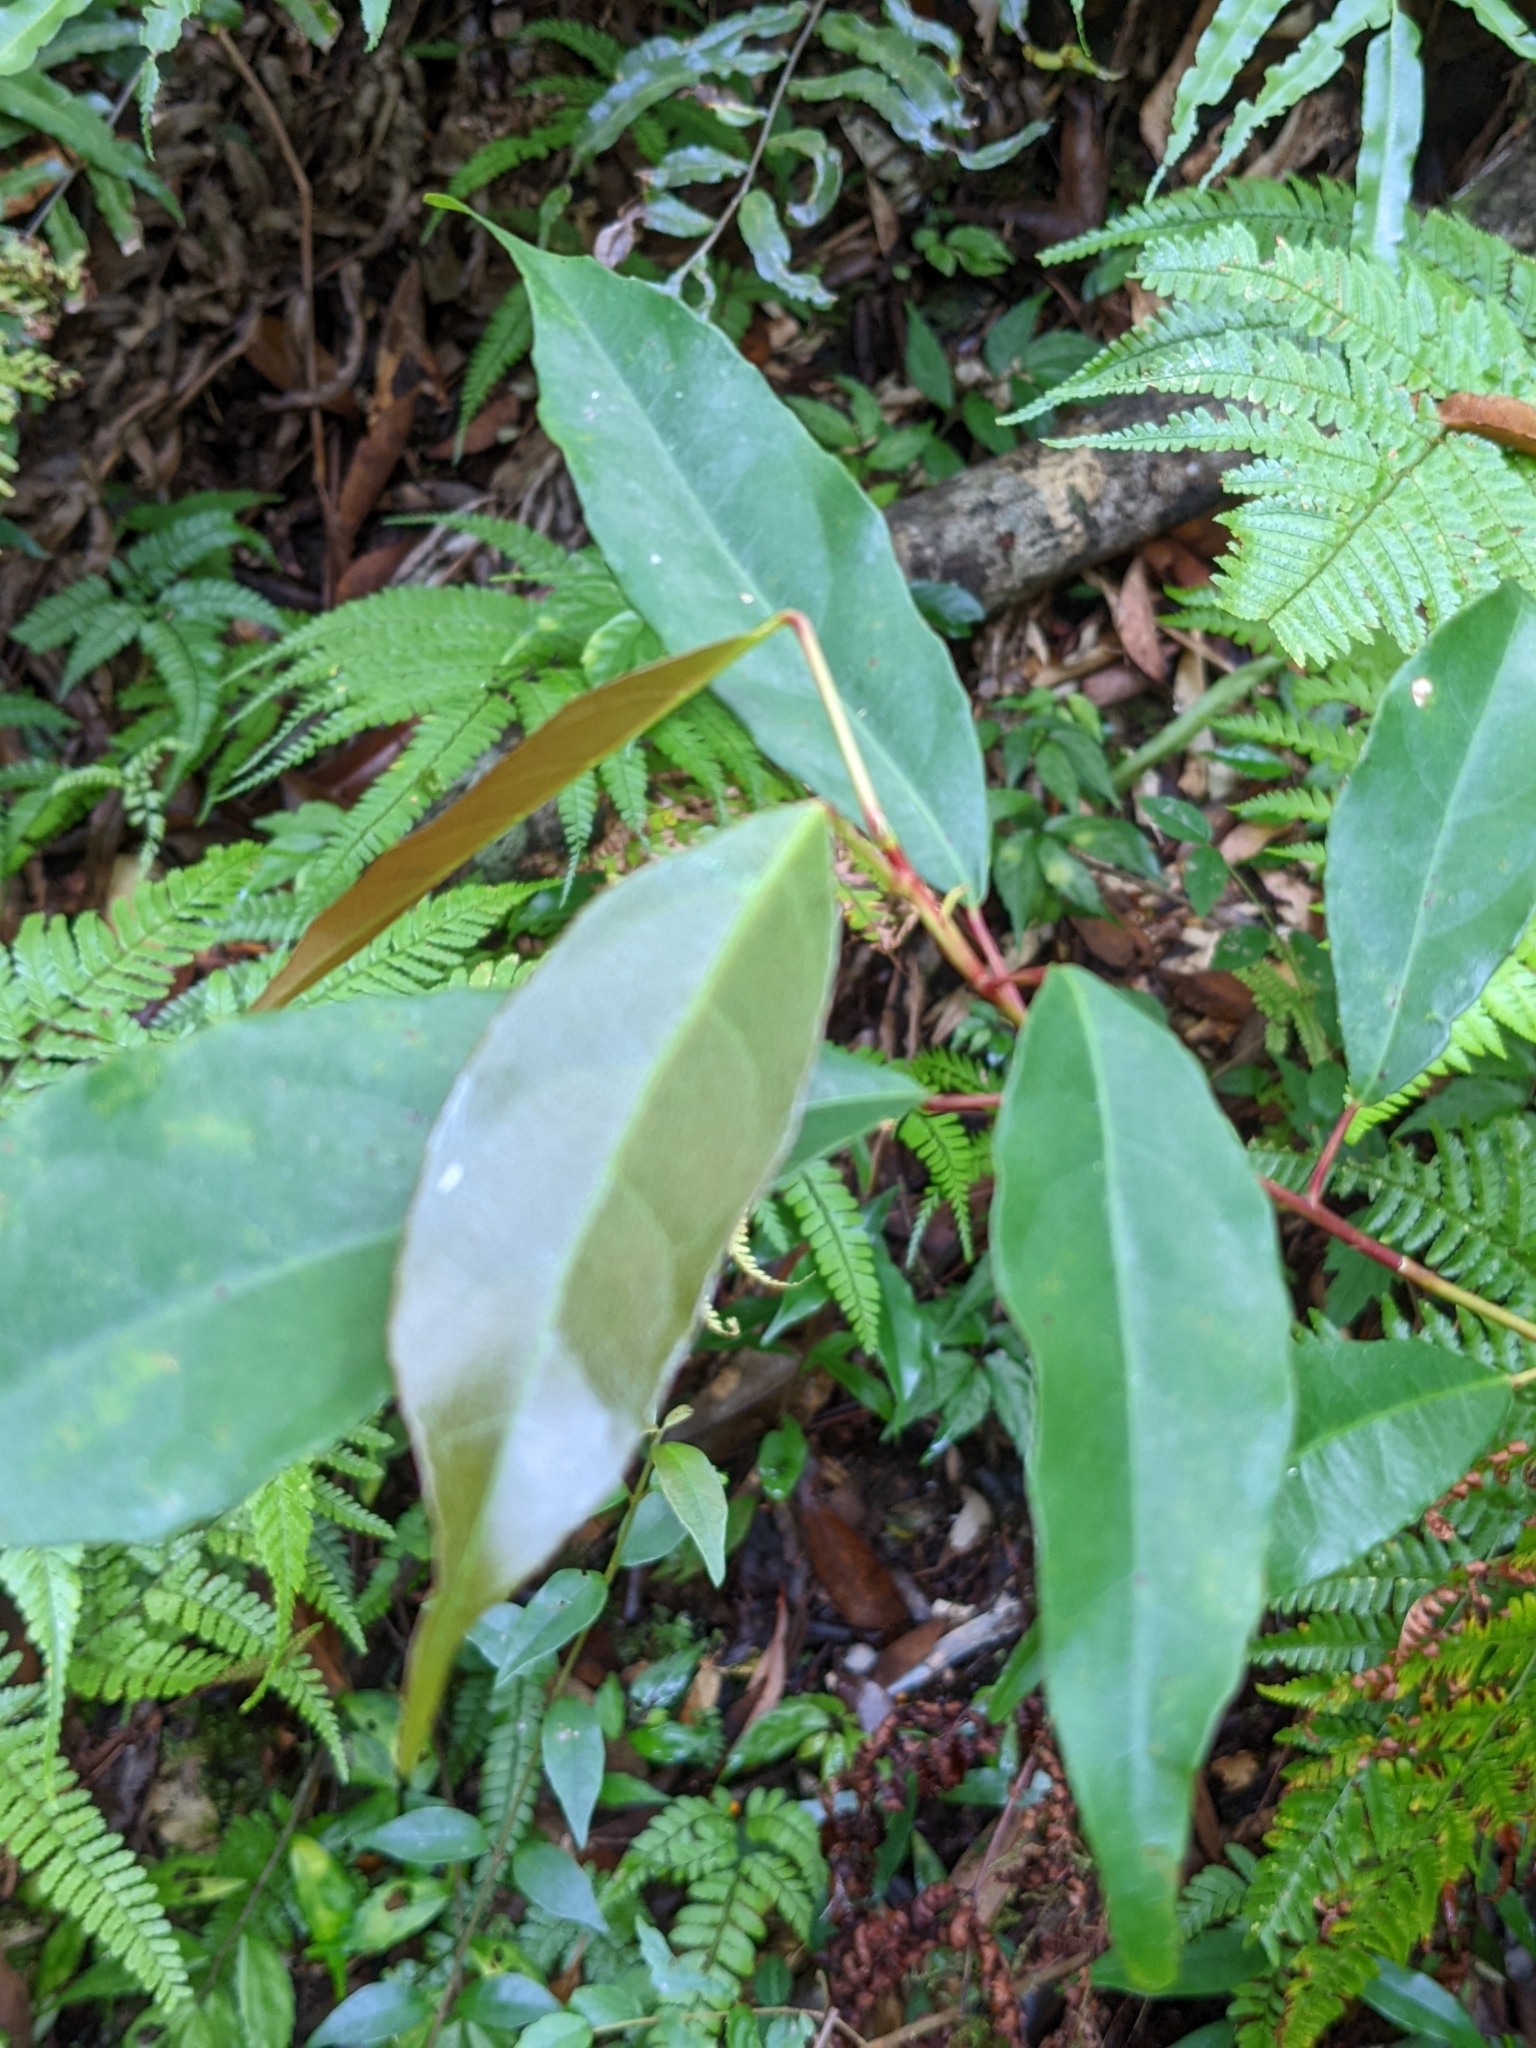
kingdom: Plantae
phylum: Tracheophyta
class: Magnoliopsida
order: Oxalidales
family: Elaeocarpaceae
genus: Elaeocarpus
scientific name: Elaeocarpus japonicus
